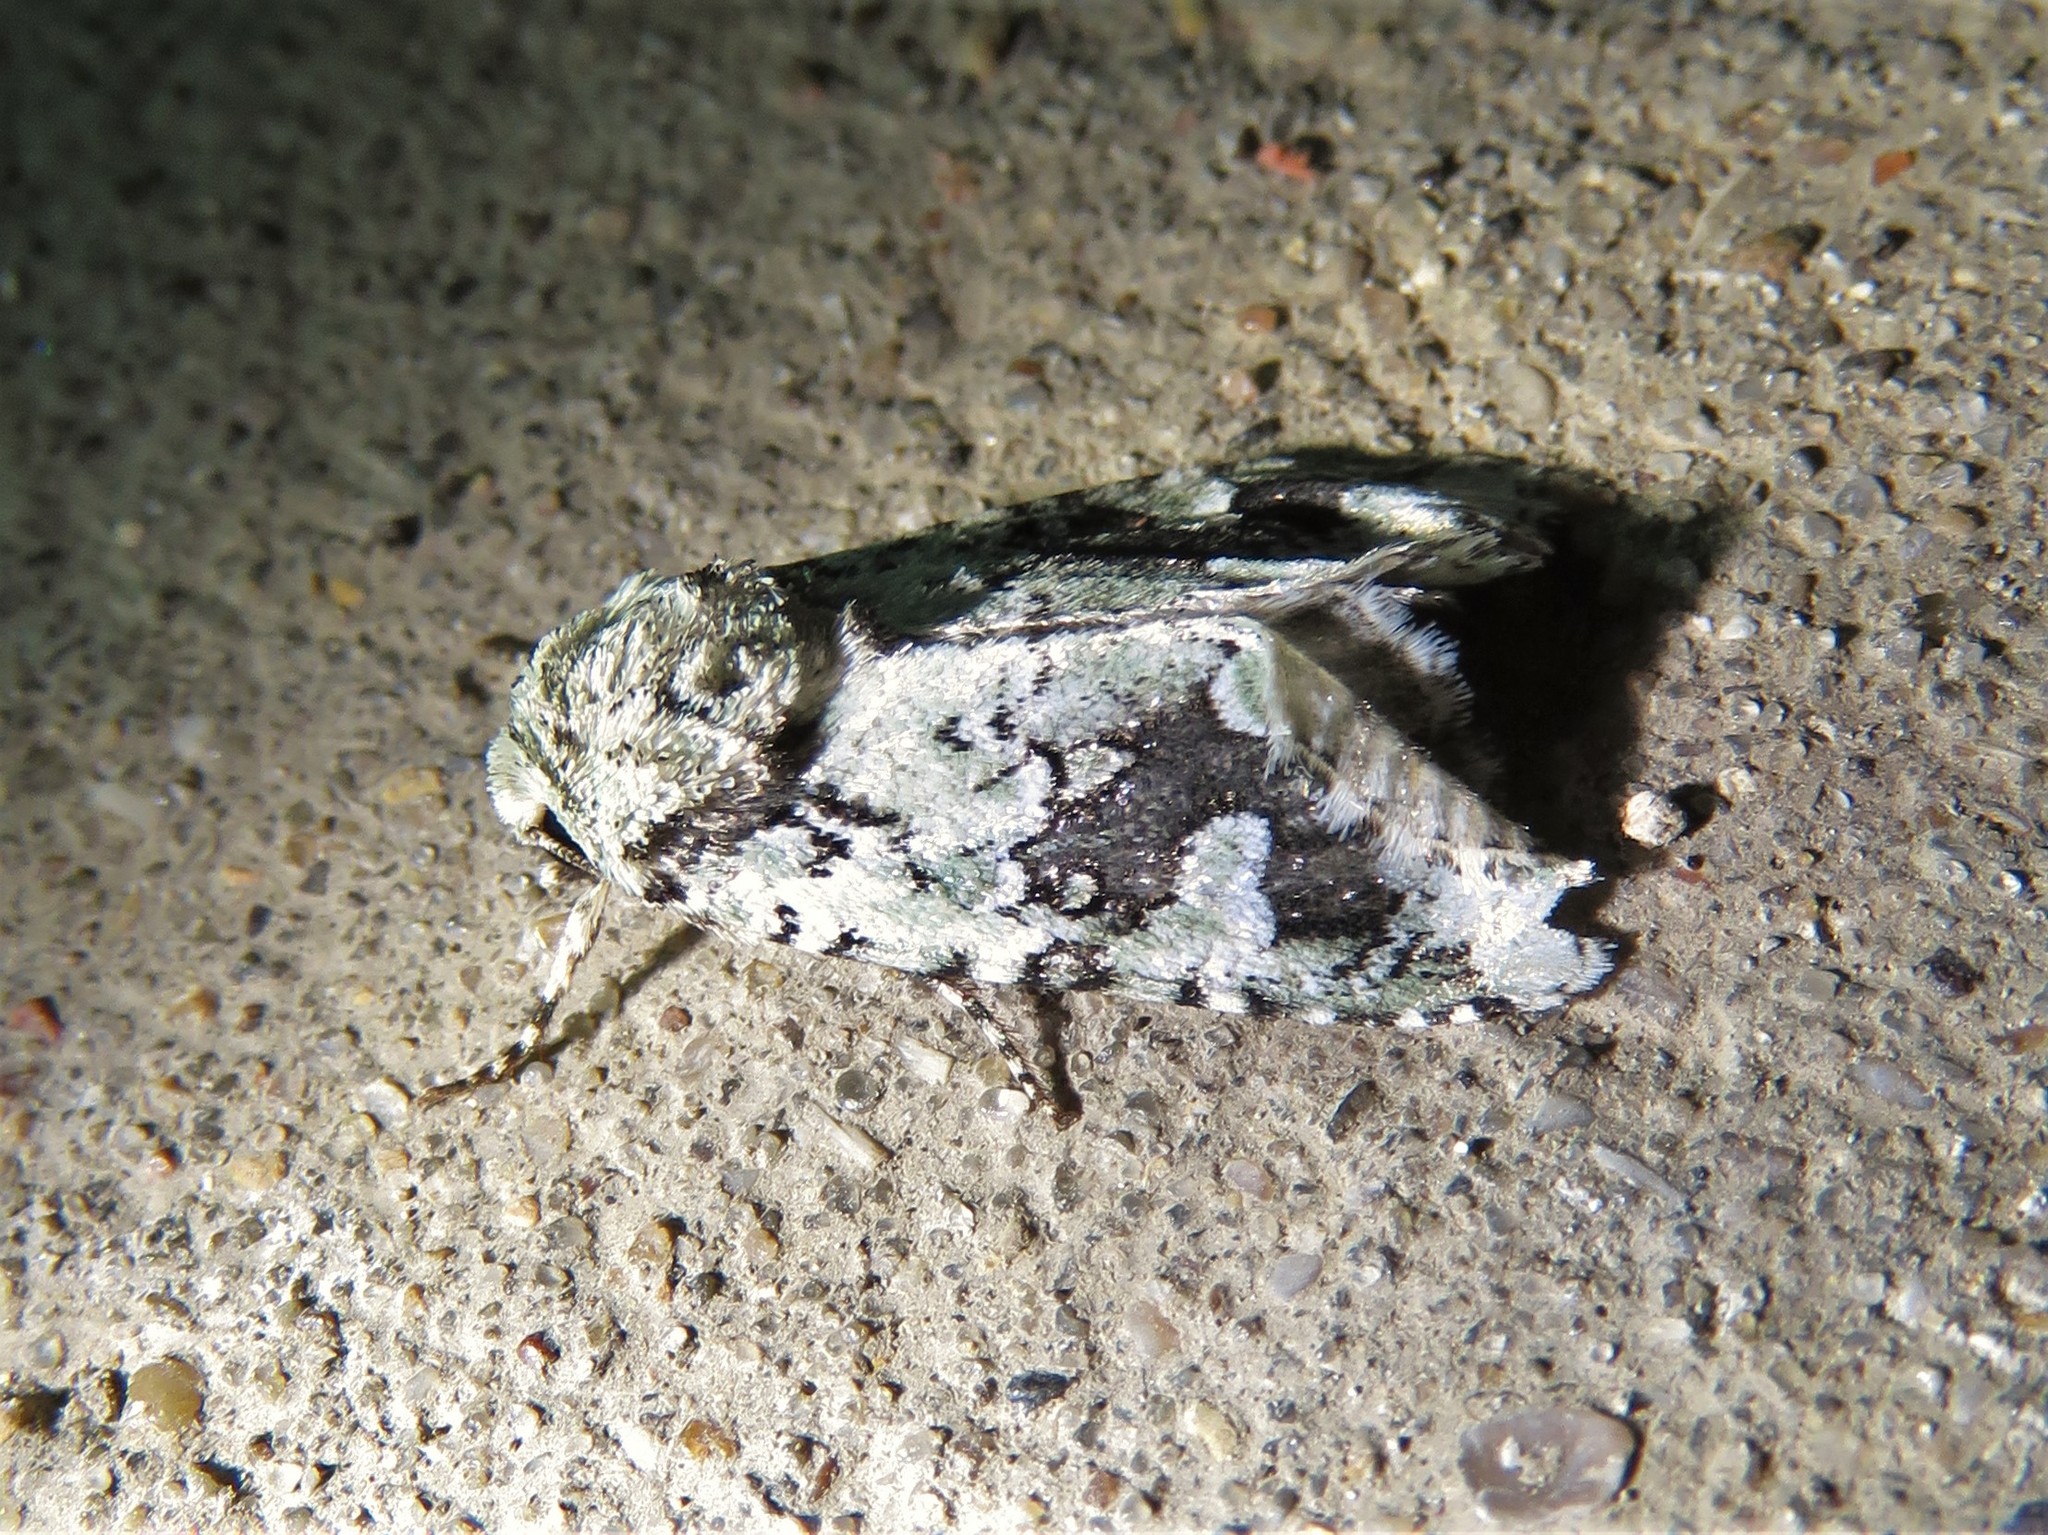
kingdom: Animalia
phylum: Arthropoda
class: Insecta
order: Lepidoptera
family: Noctuidae
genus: Lacinipolia
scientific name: Lacinipolia laudabilis
